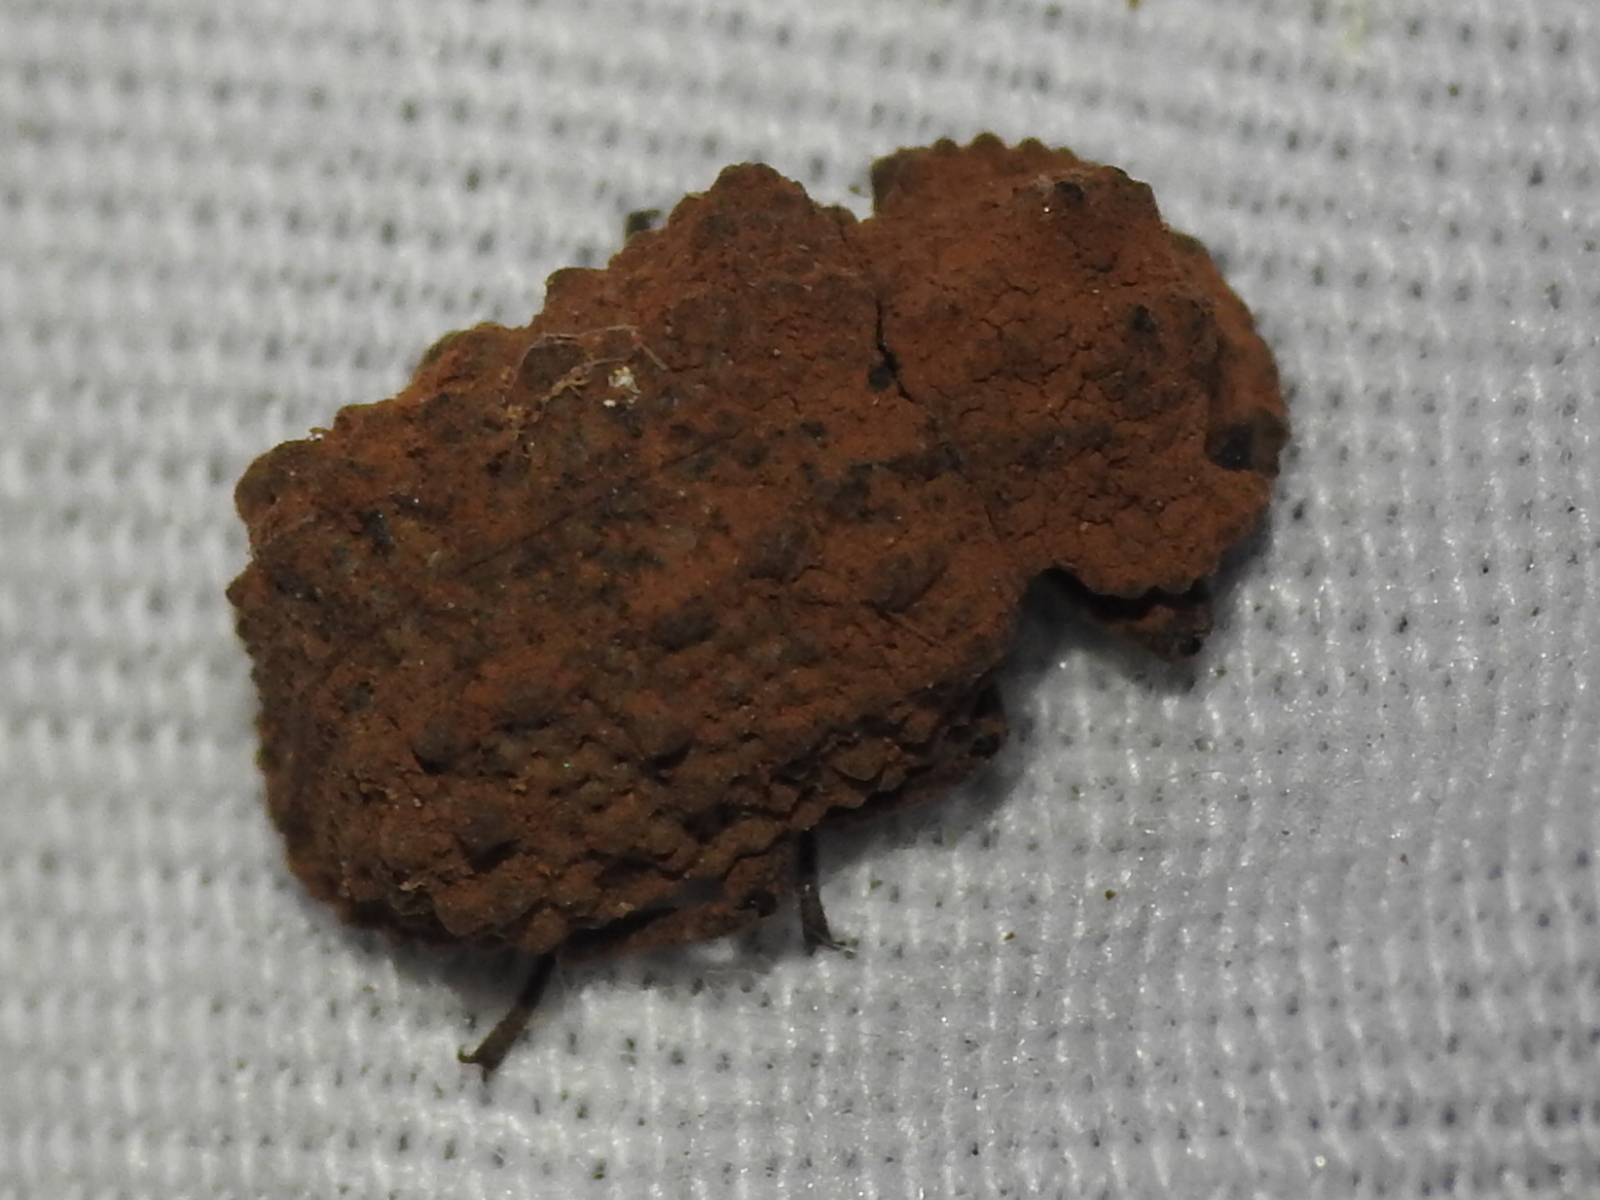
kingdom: Animalia
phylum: Arthropoda
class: Insecta
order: Coleoptera
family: Tenebrionidae
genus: Gnatocerus
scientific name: Gnatocerus cornutus
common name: Broad-horned flour beetle
